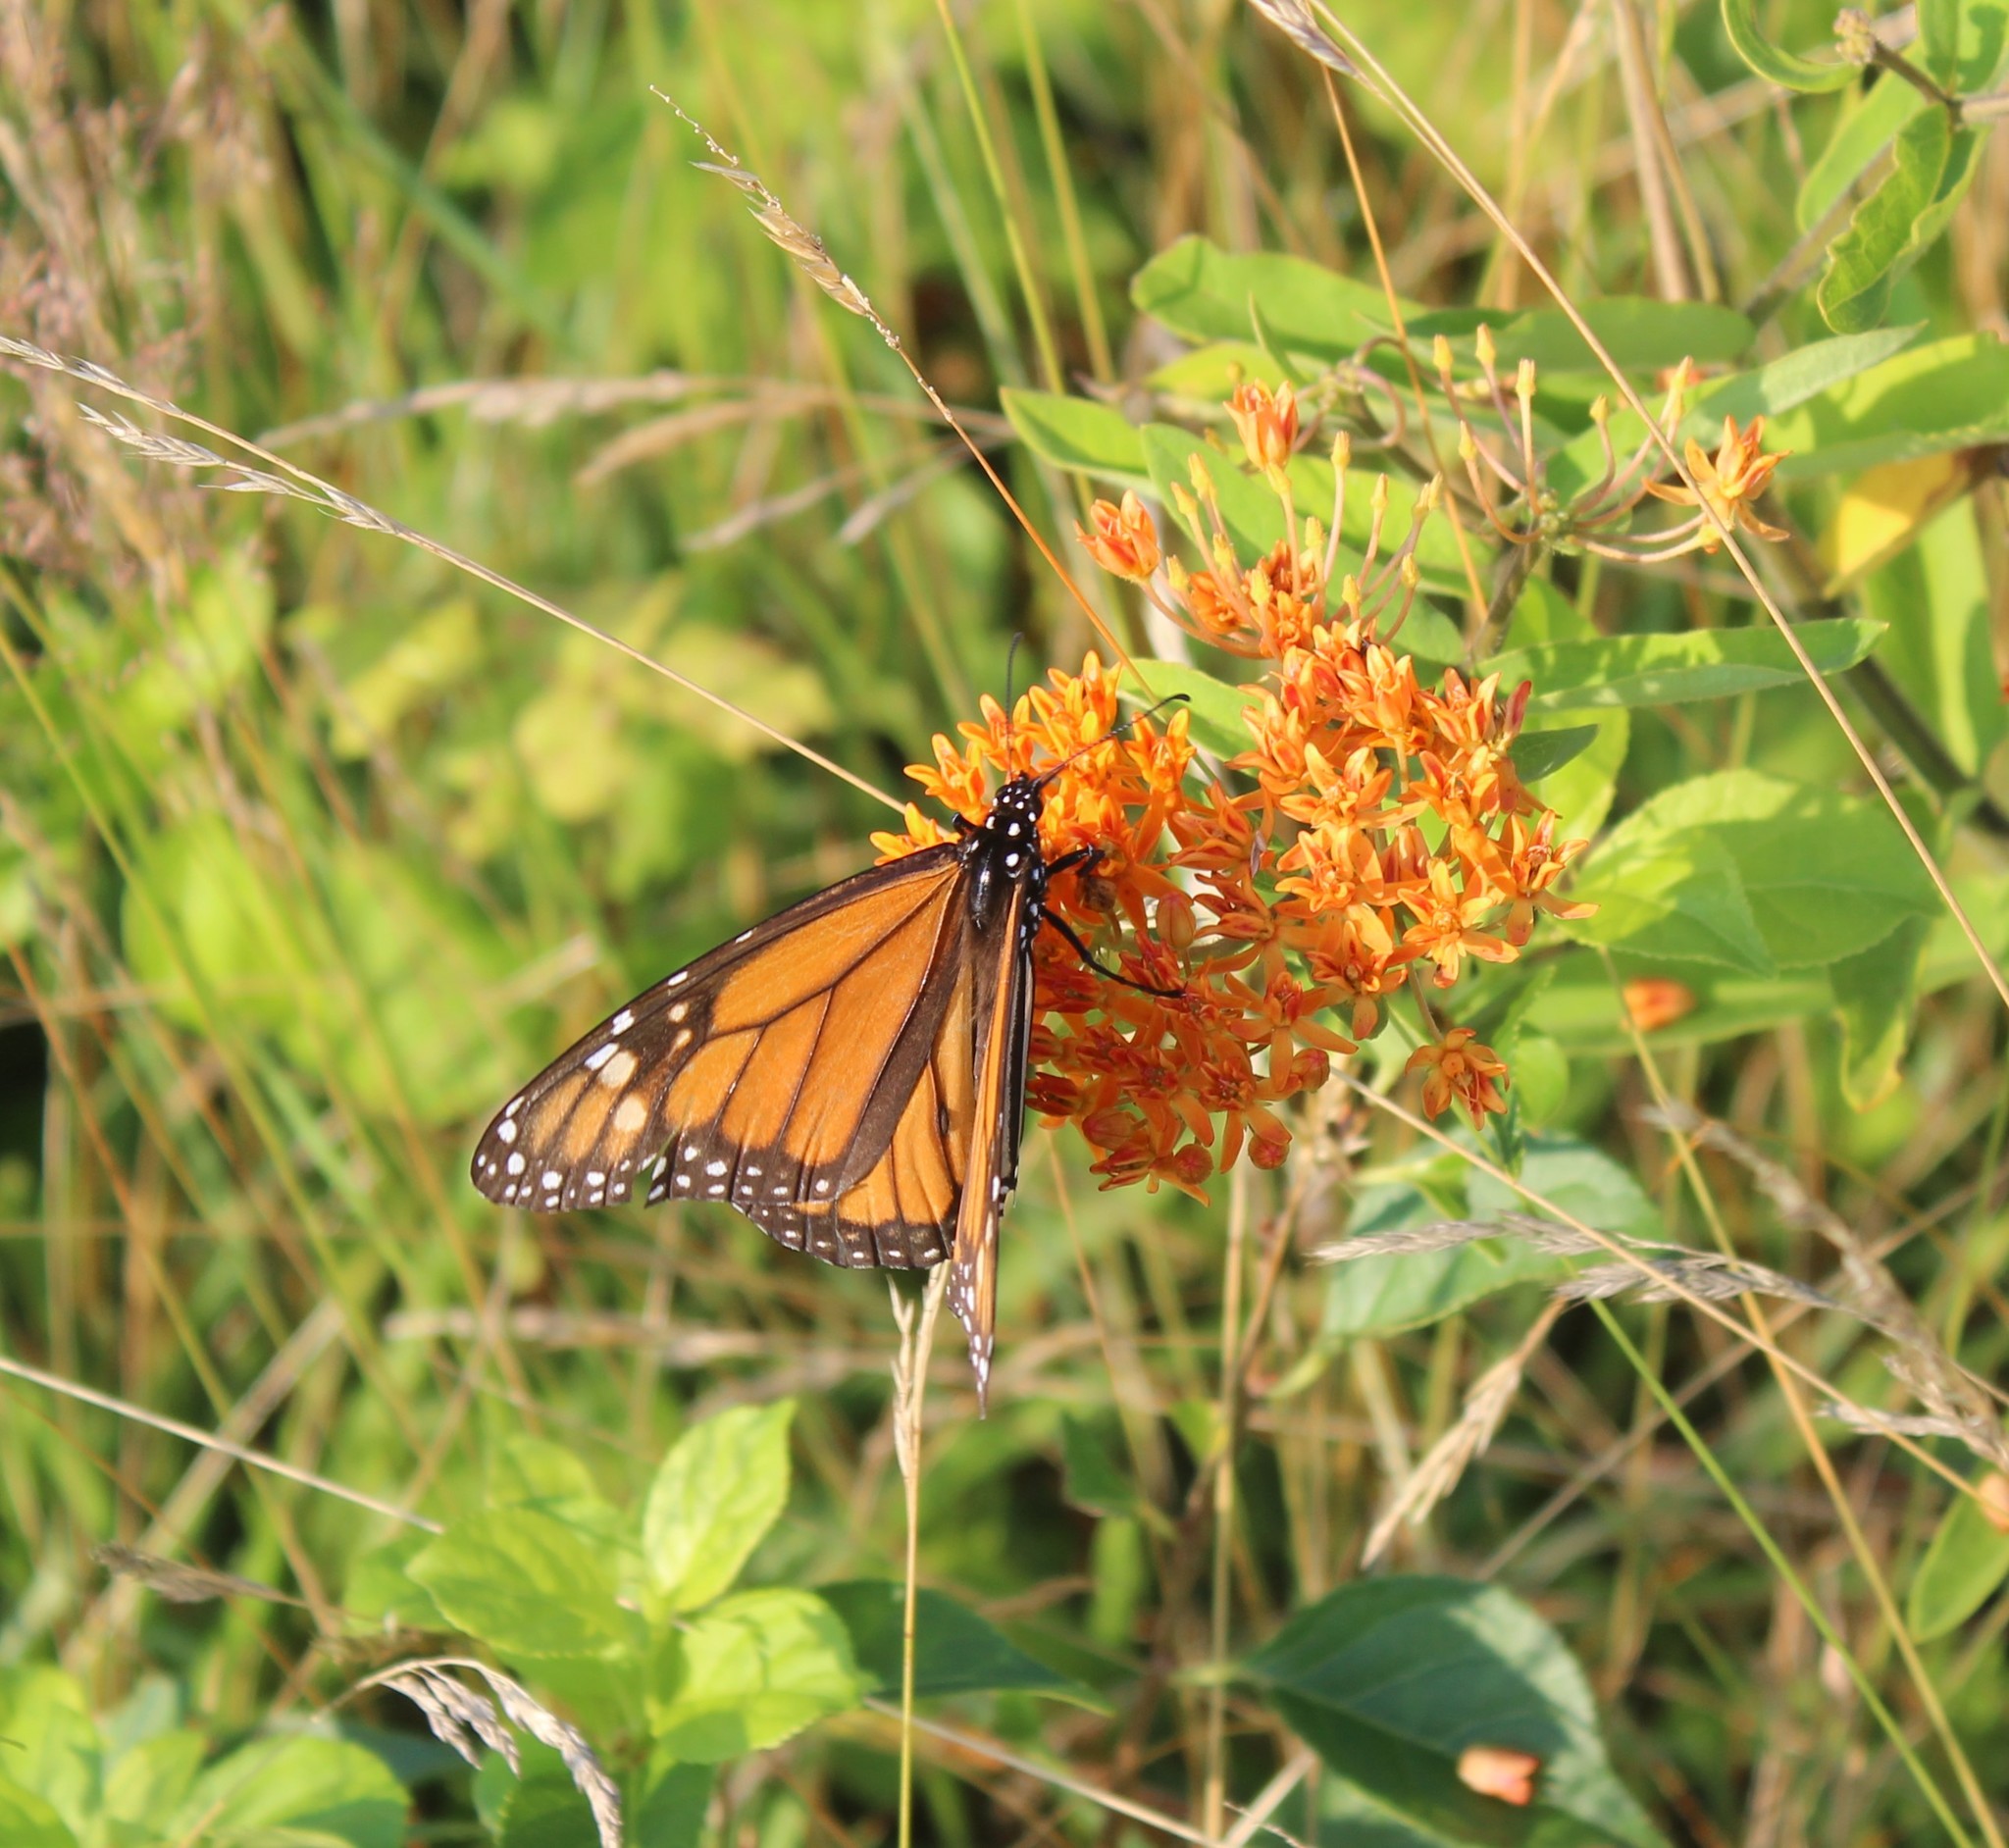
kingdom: Animalia
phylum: Arthropoda
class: Insecta
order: Lepidoptera
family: Nymphalidae
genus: Danaus
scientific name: Danaus plexippus
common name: Monarch
